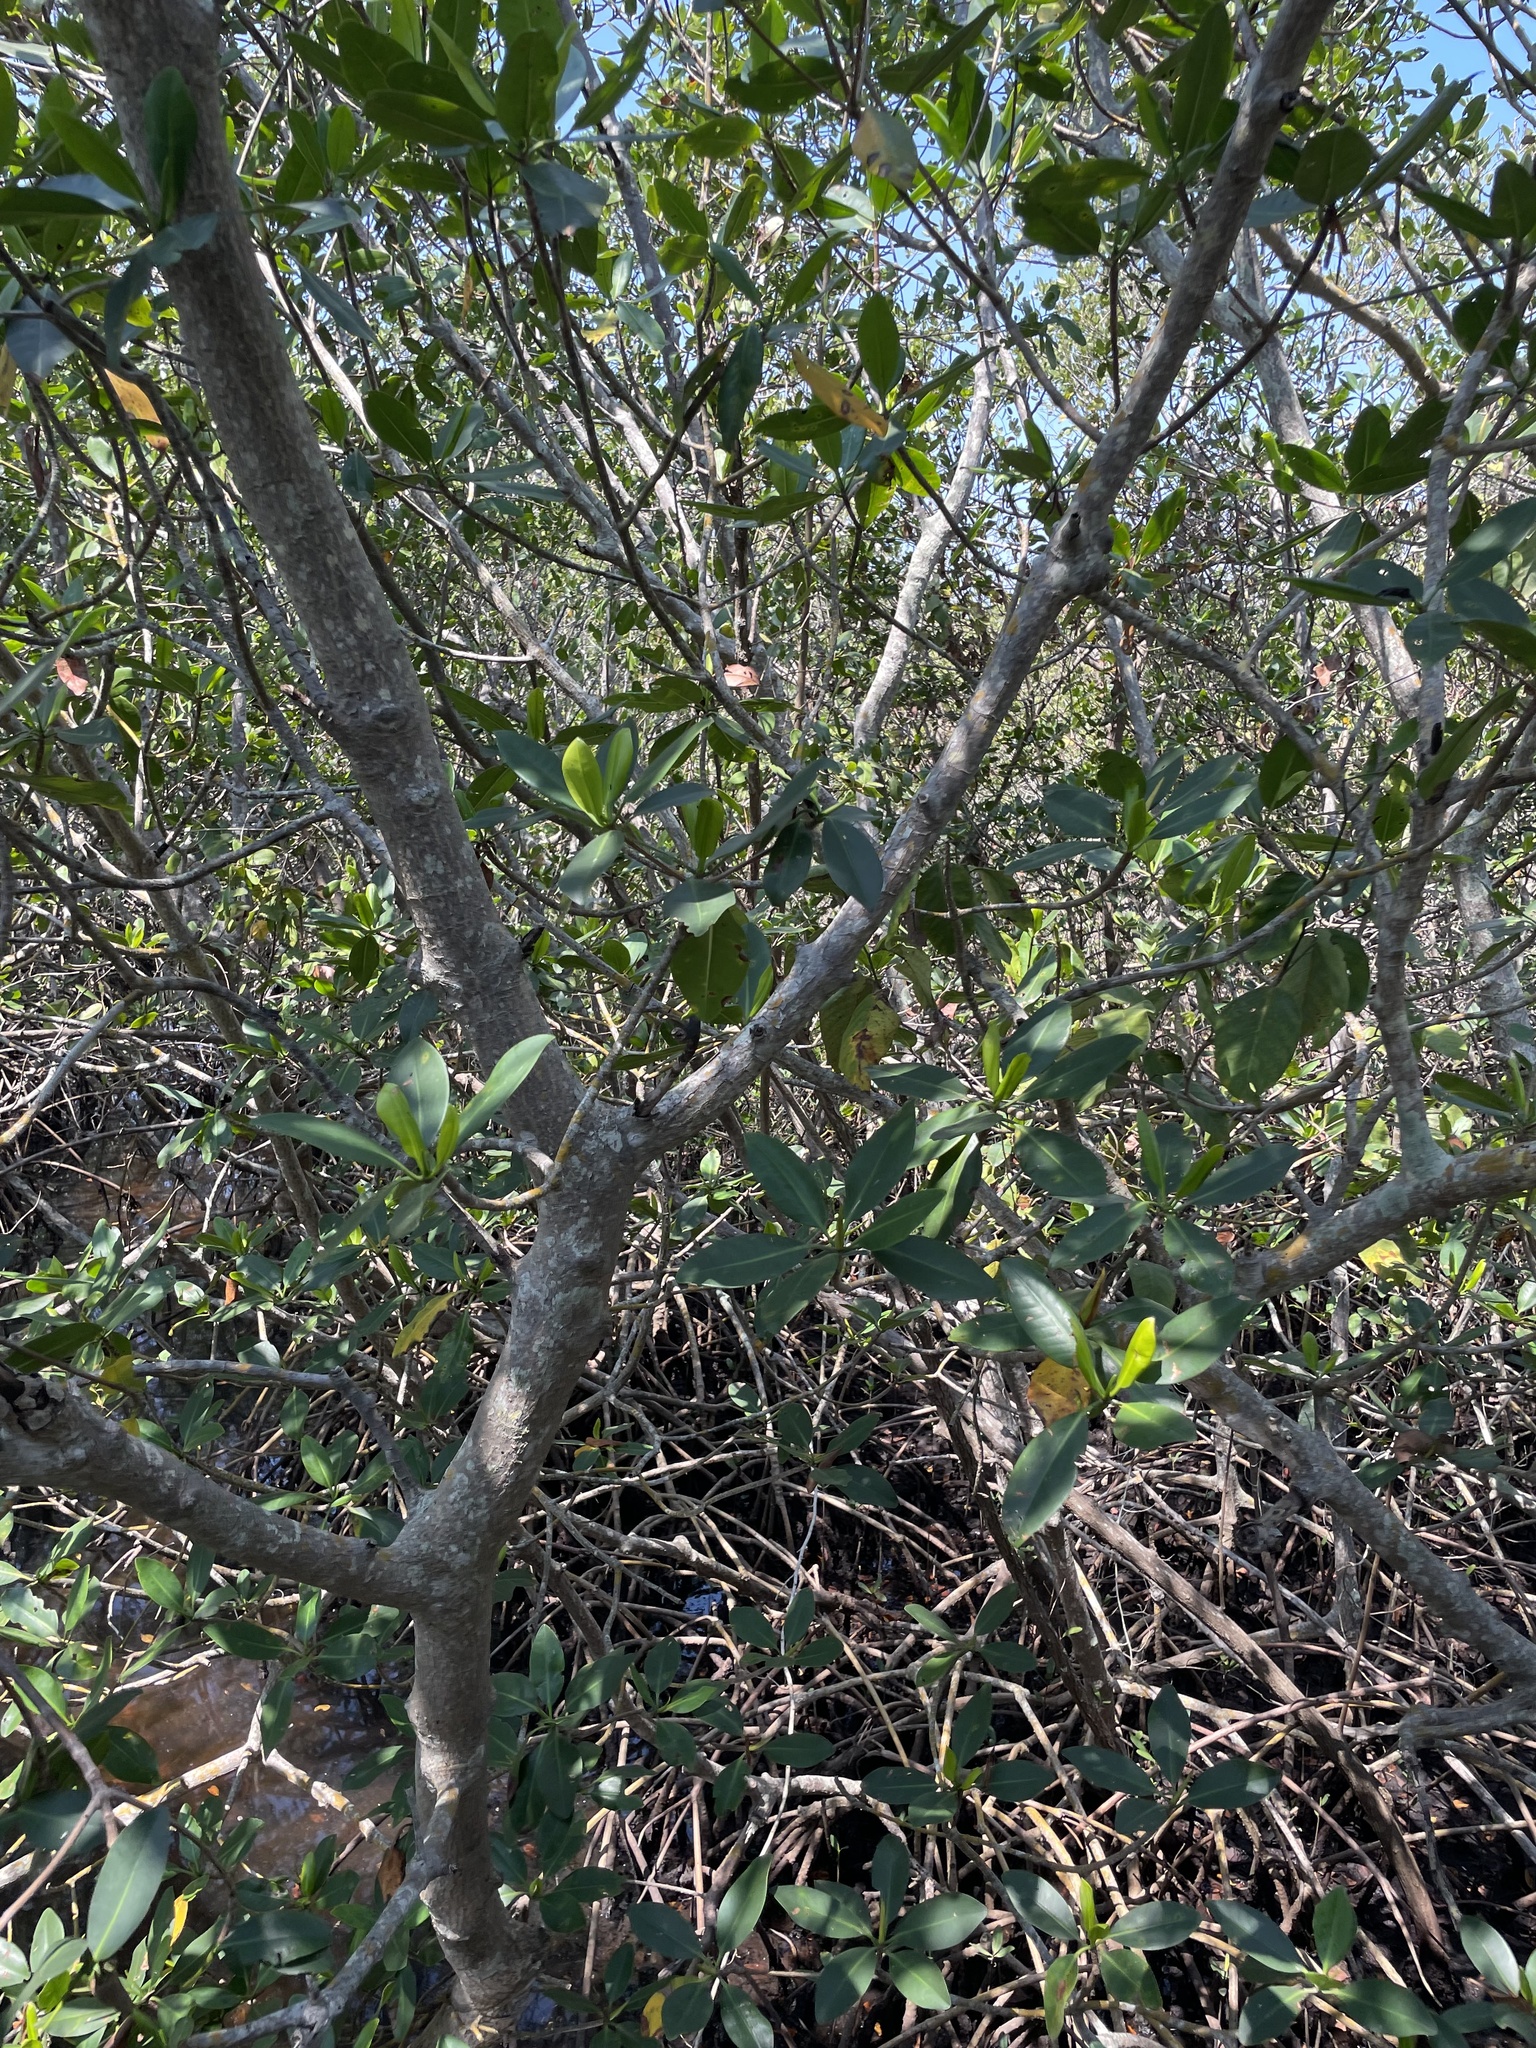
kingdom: Plantae
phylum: Tracheophyta
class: Magnoliopsida
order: Malpighiales
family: Rhizophoraceae
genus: Rhizophora
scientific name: Rhizophora mangle
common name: Red mangrove
